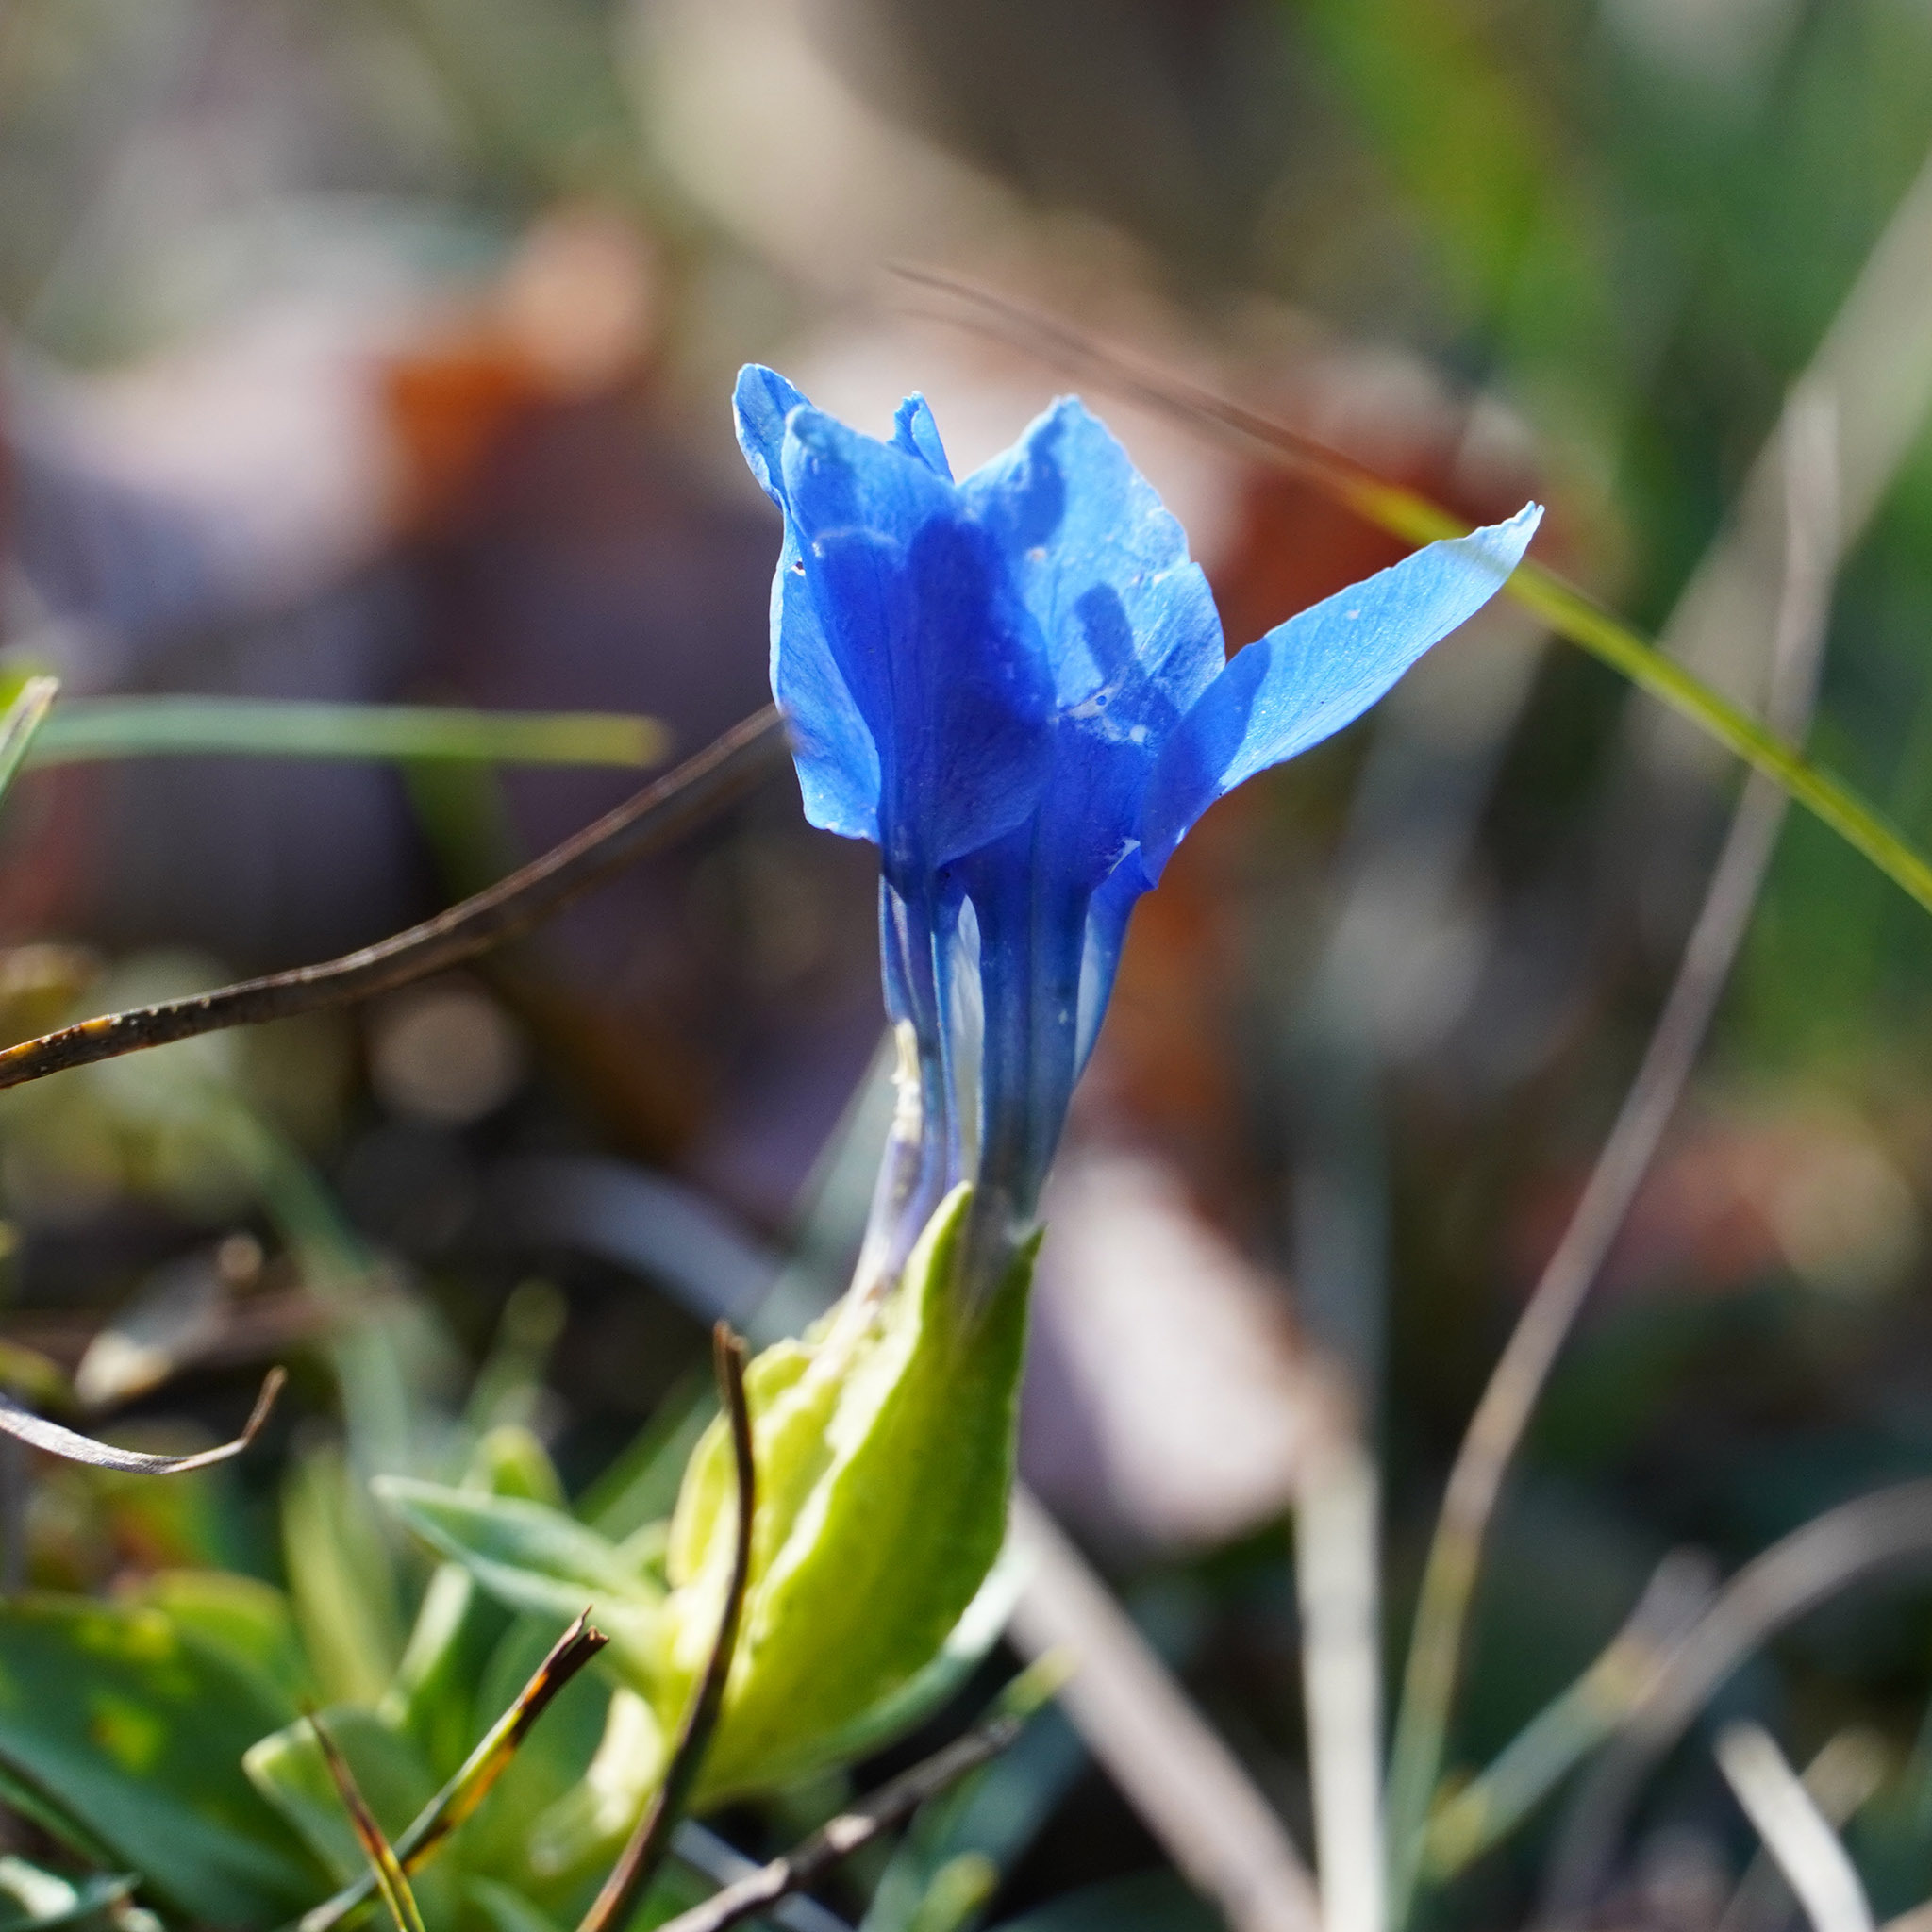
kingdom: Plantae
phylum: Tracheophyta
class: Magnoliopsida
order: Gentianales
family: Gentianaceae
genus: Gentiana
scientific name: Gentiana verna
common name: Spring gentian
